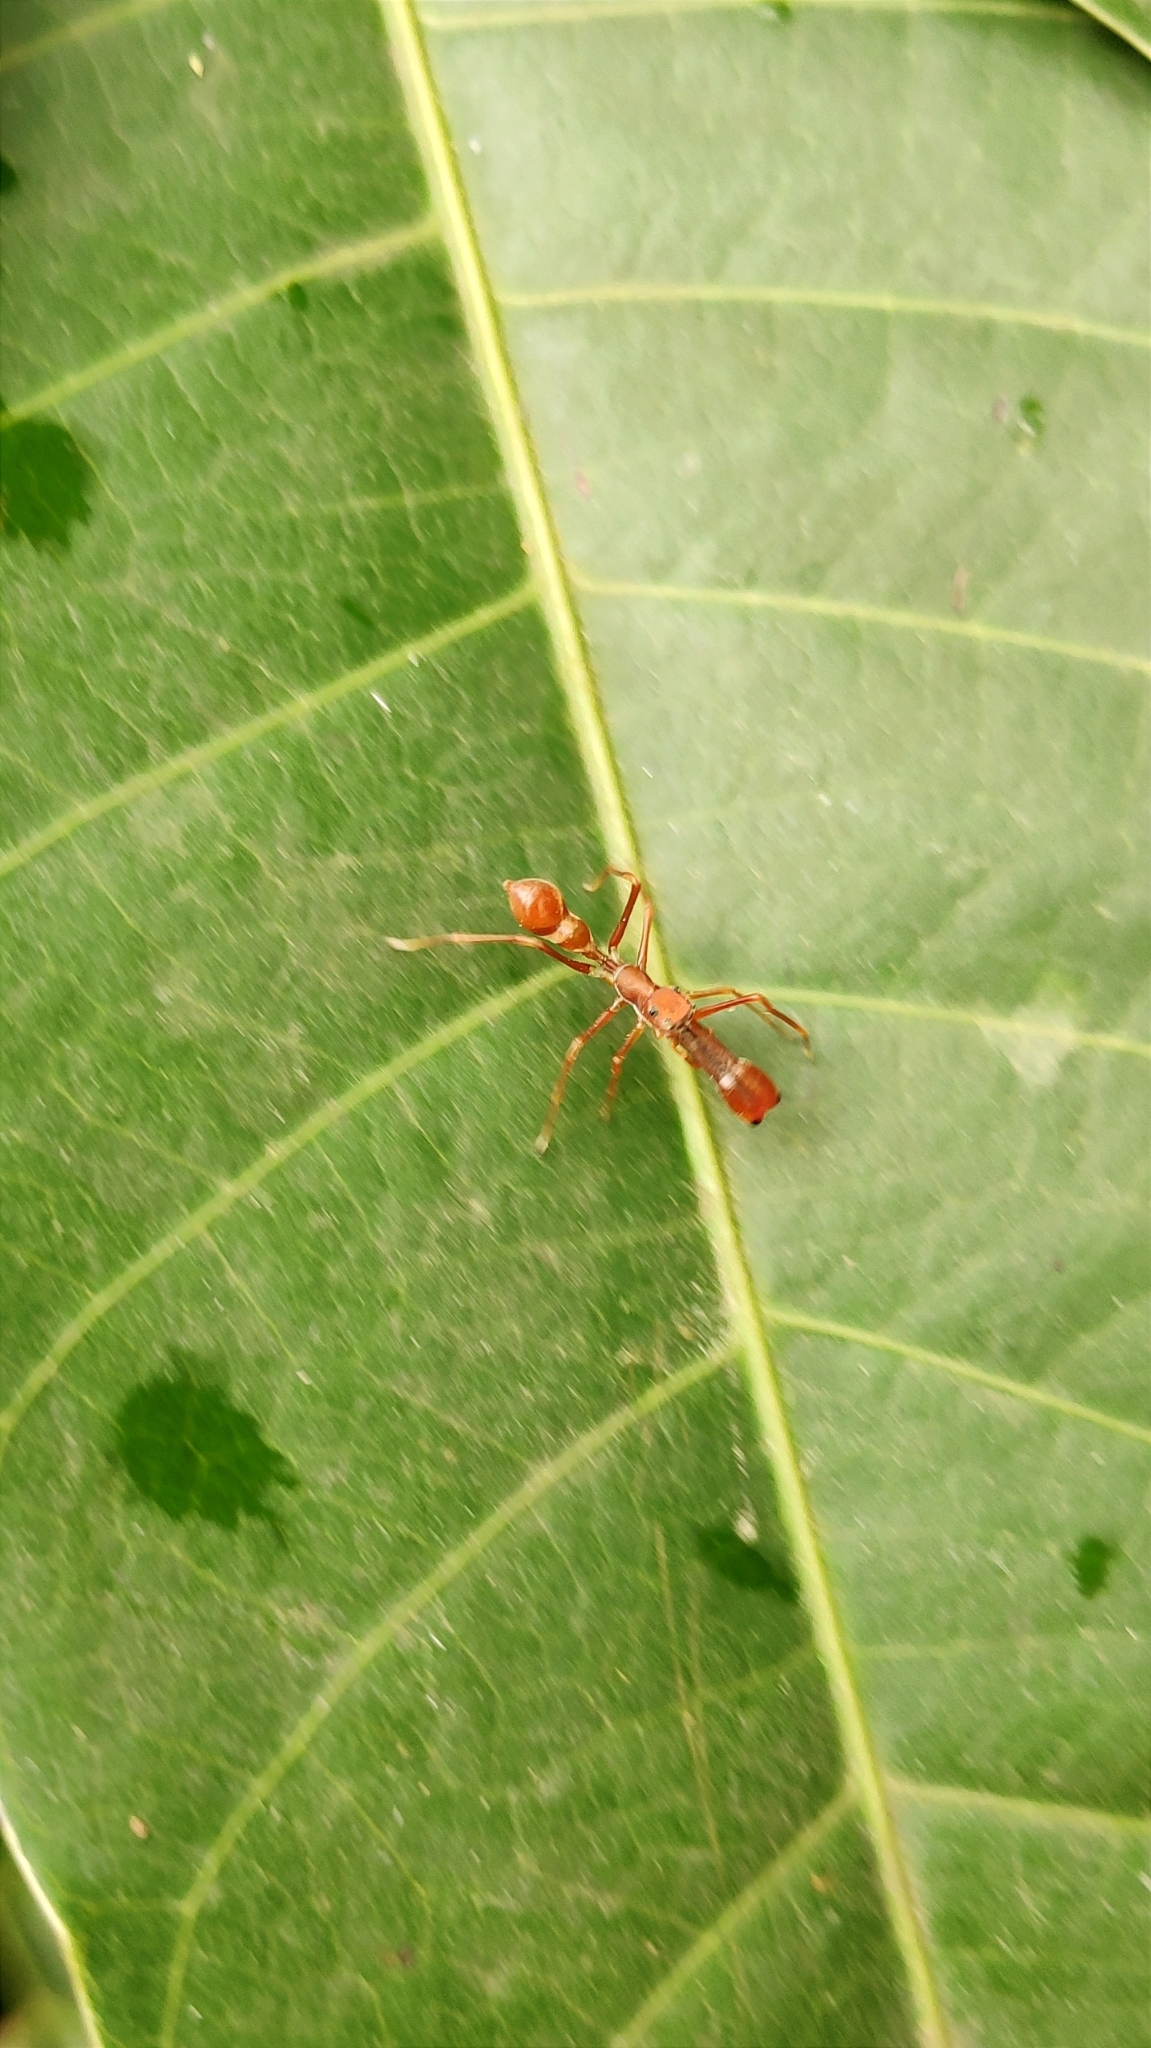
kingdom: Animalia
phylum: Arthropoda
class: Arachnida
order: Araneae
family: Salticidae
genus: Myrmaplata
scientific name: Myrmaplata plataleoides
